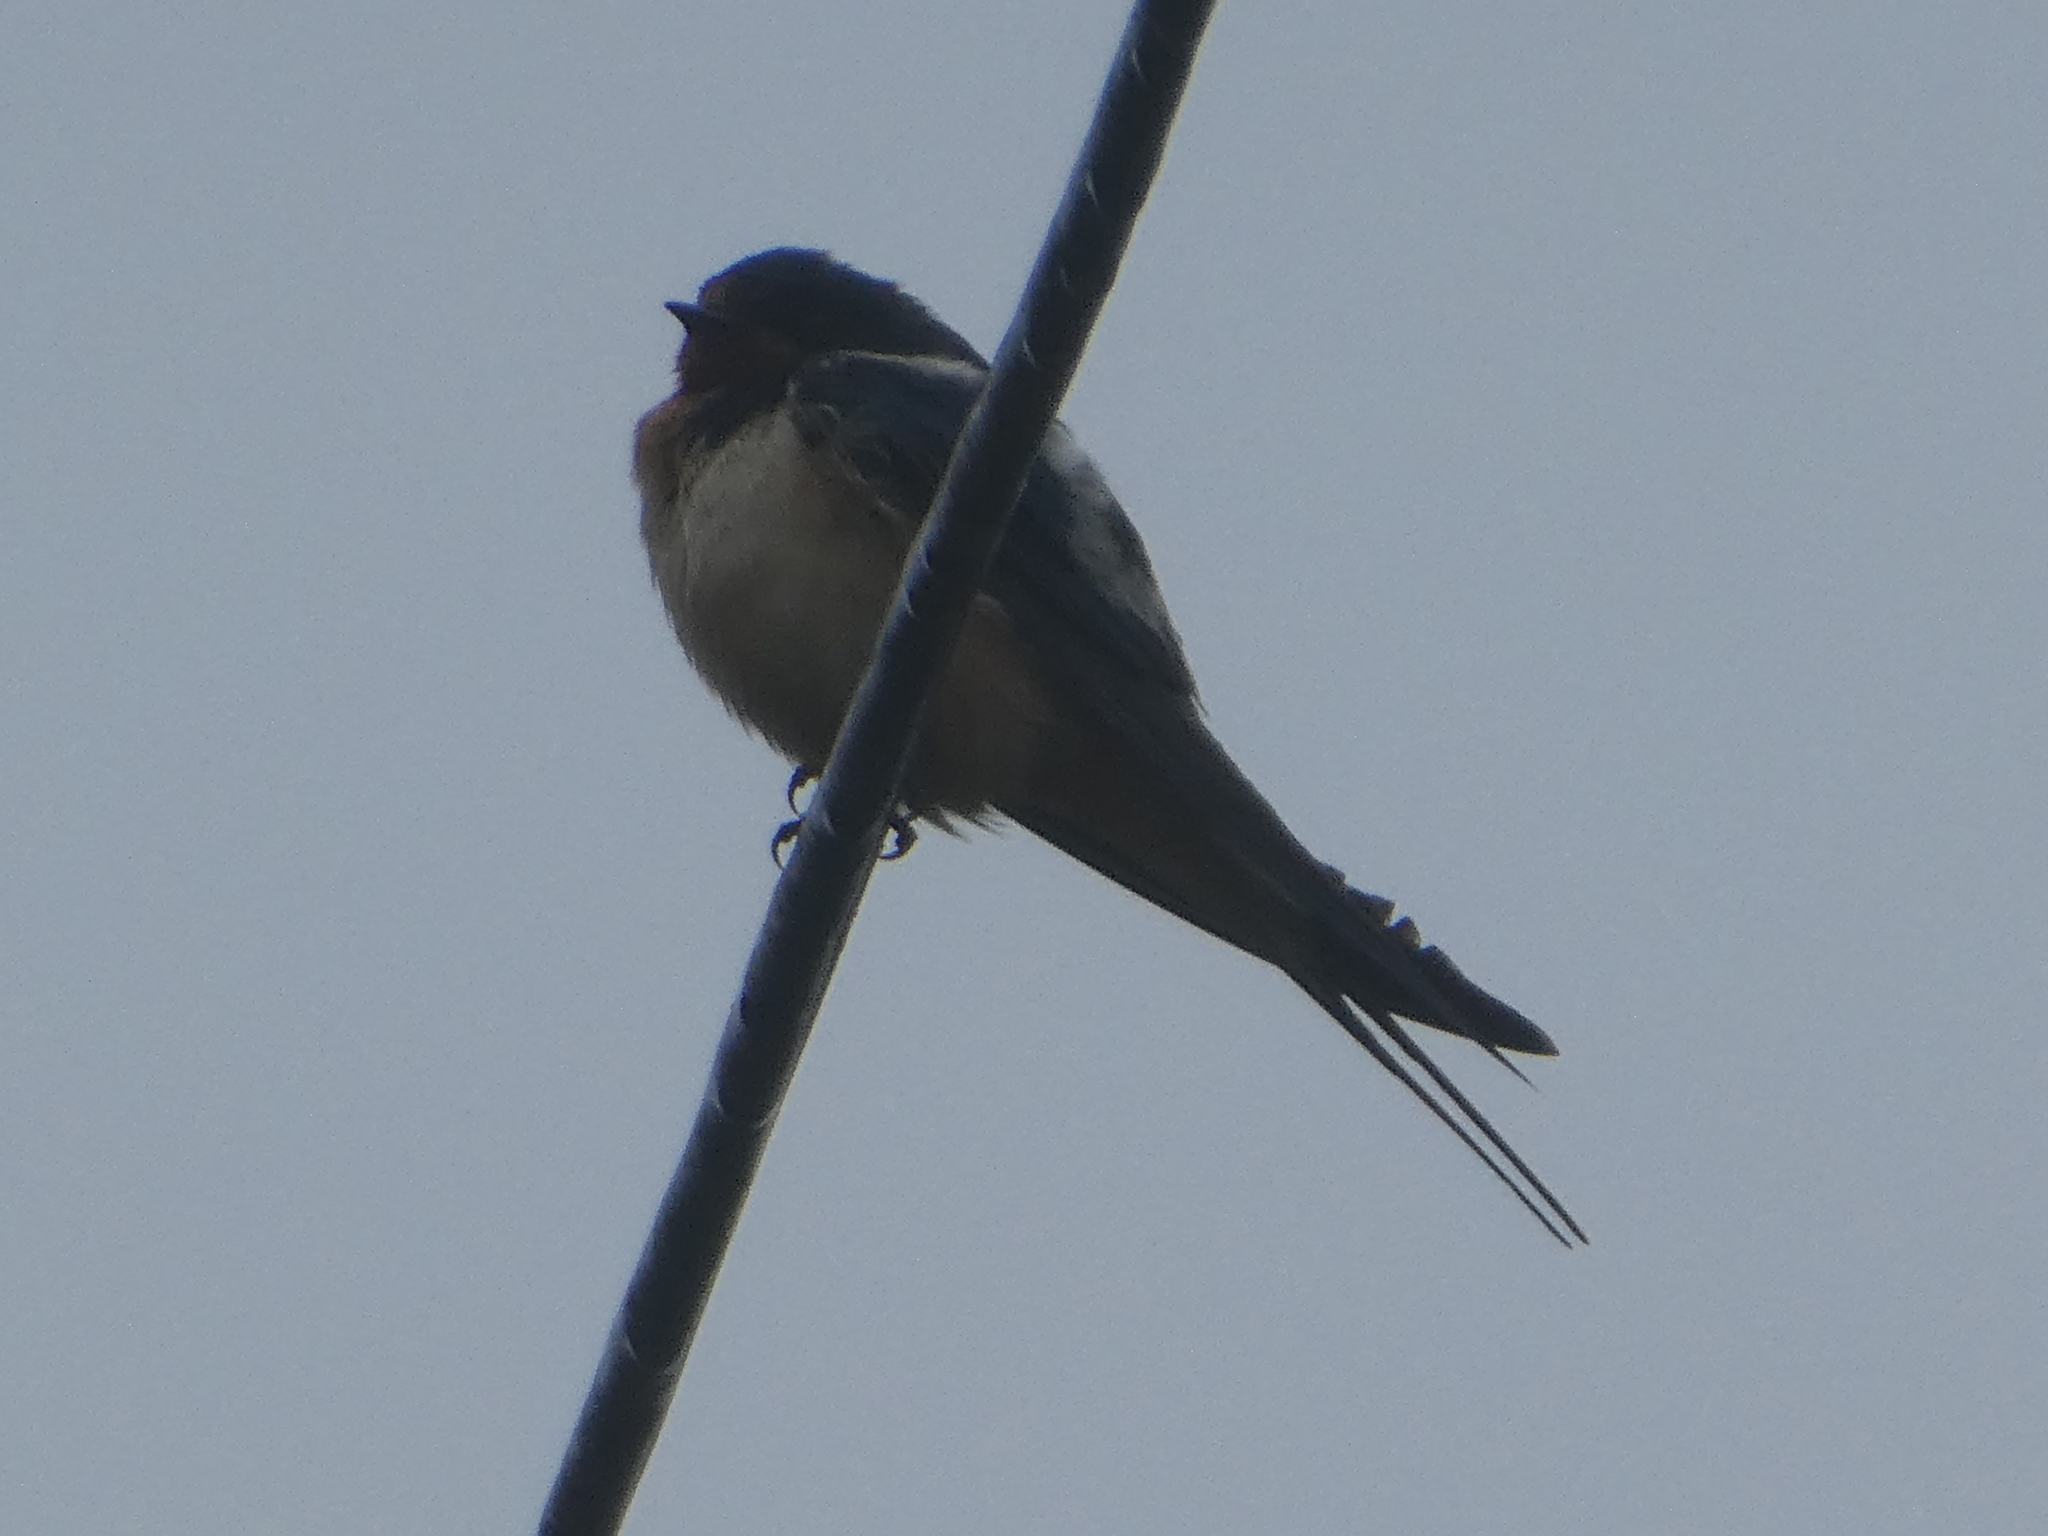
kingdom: Animalia
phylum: Chordata
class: Aves
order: Passeriformes
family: Hirundinidae
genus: Hirundo
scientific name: Hirundo rustica
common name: Barn swallow
